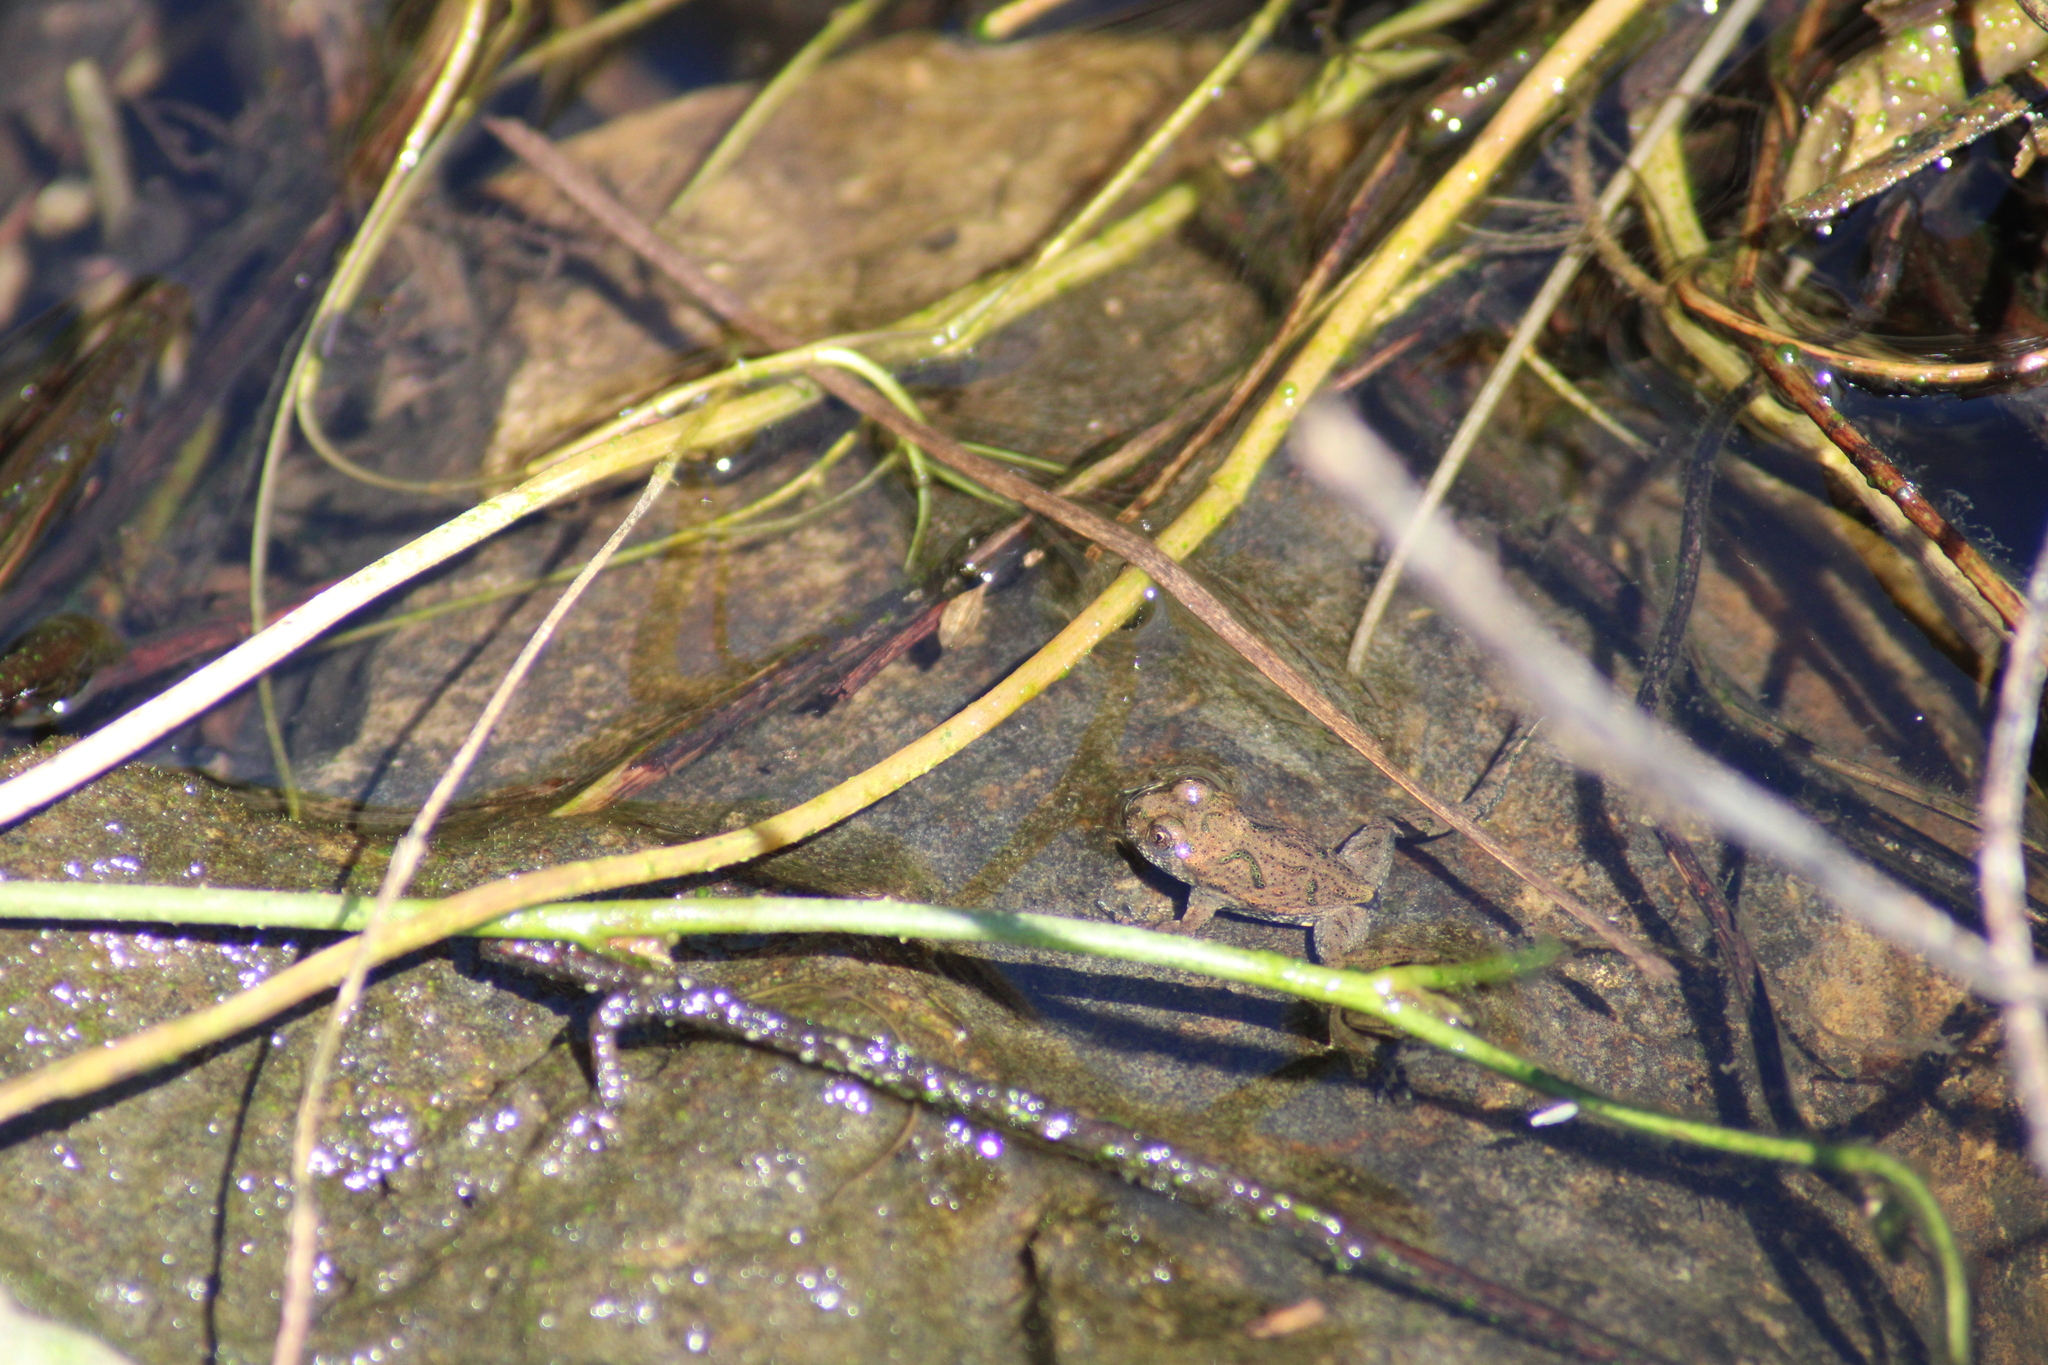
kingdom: Animalia
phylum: Chordata
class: Amphibia
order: Anura
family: Bombinatoridae
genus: Bombina
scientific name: Bombina bombina
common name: Fire-bellied toad
